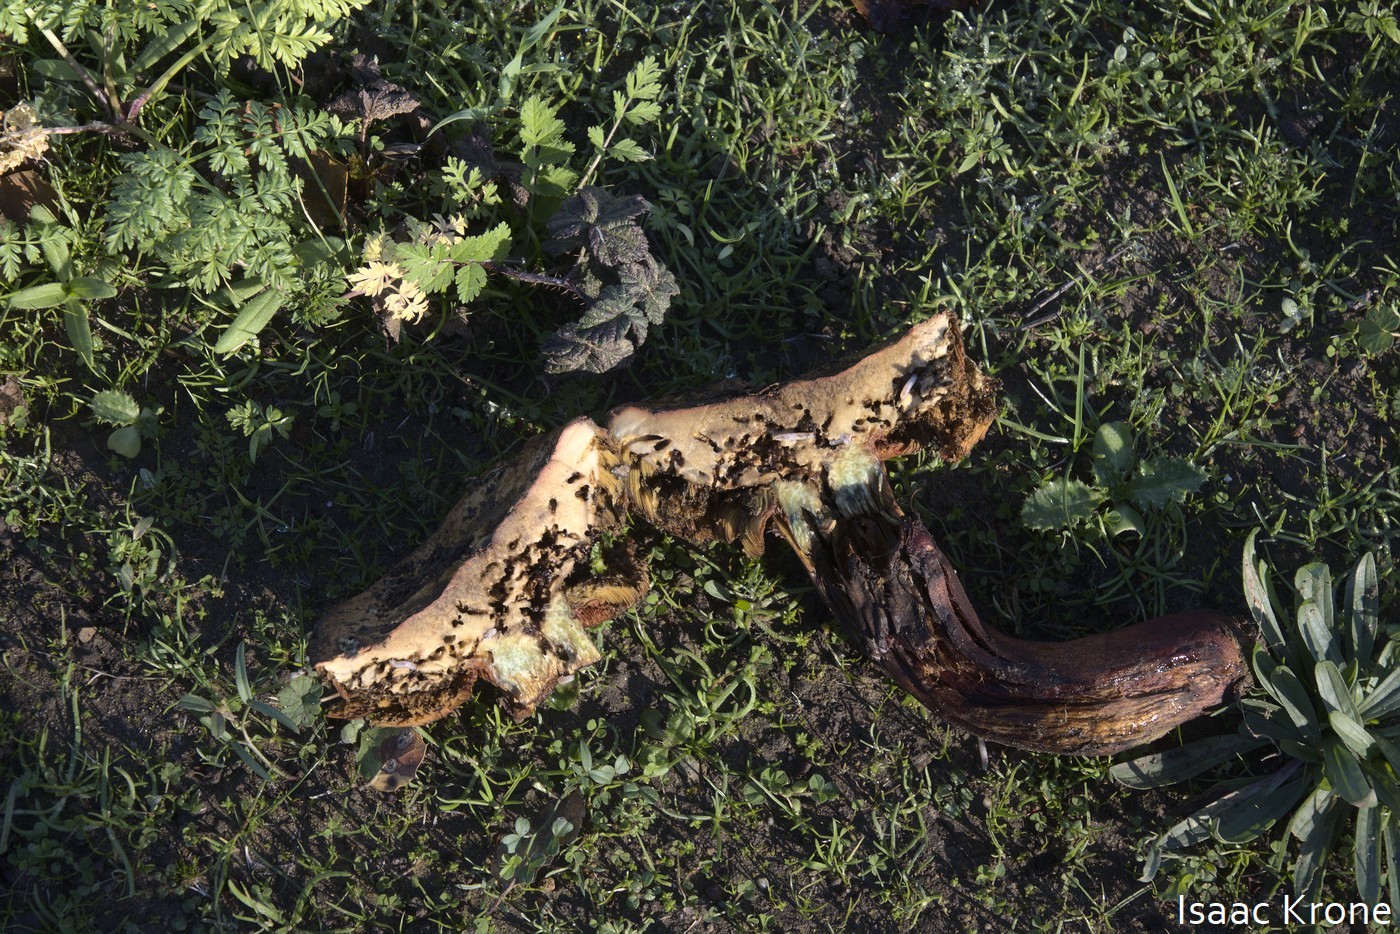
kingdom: Fungi
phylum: Basidiomycota
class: Agaricomycetes
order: Boletales
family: Boletaceae
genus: Suillellus
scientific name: Suillellus amygdalinus
